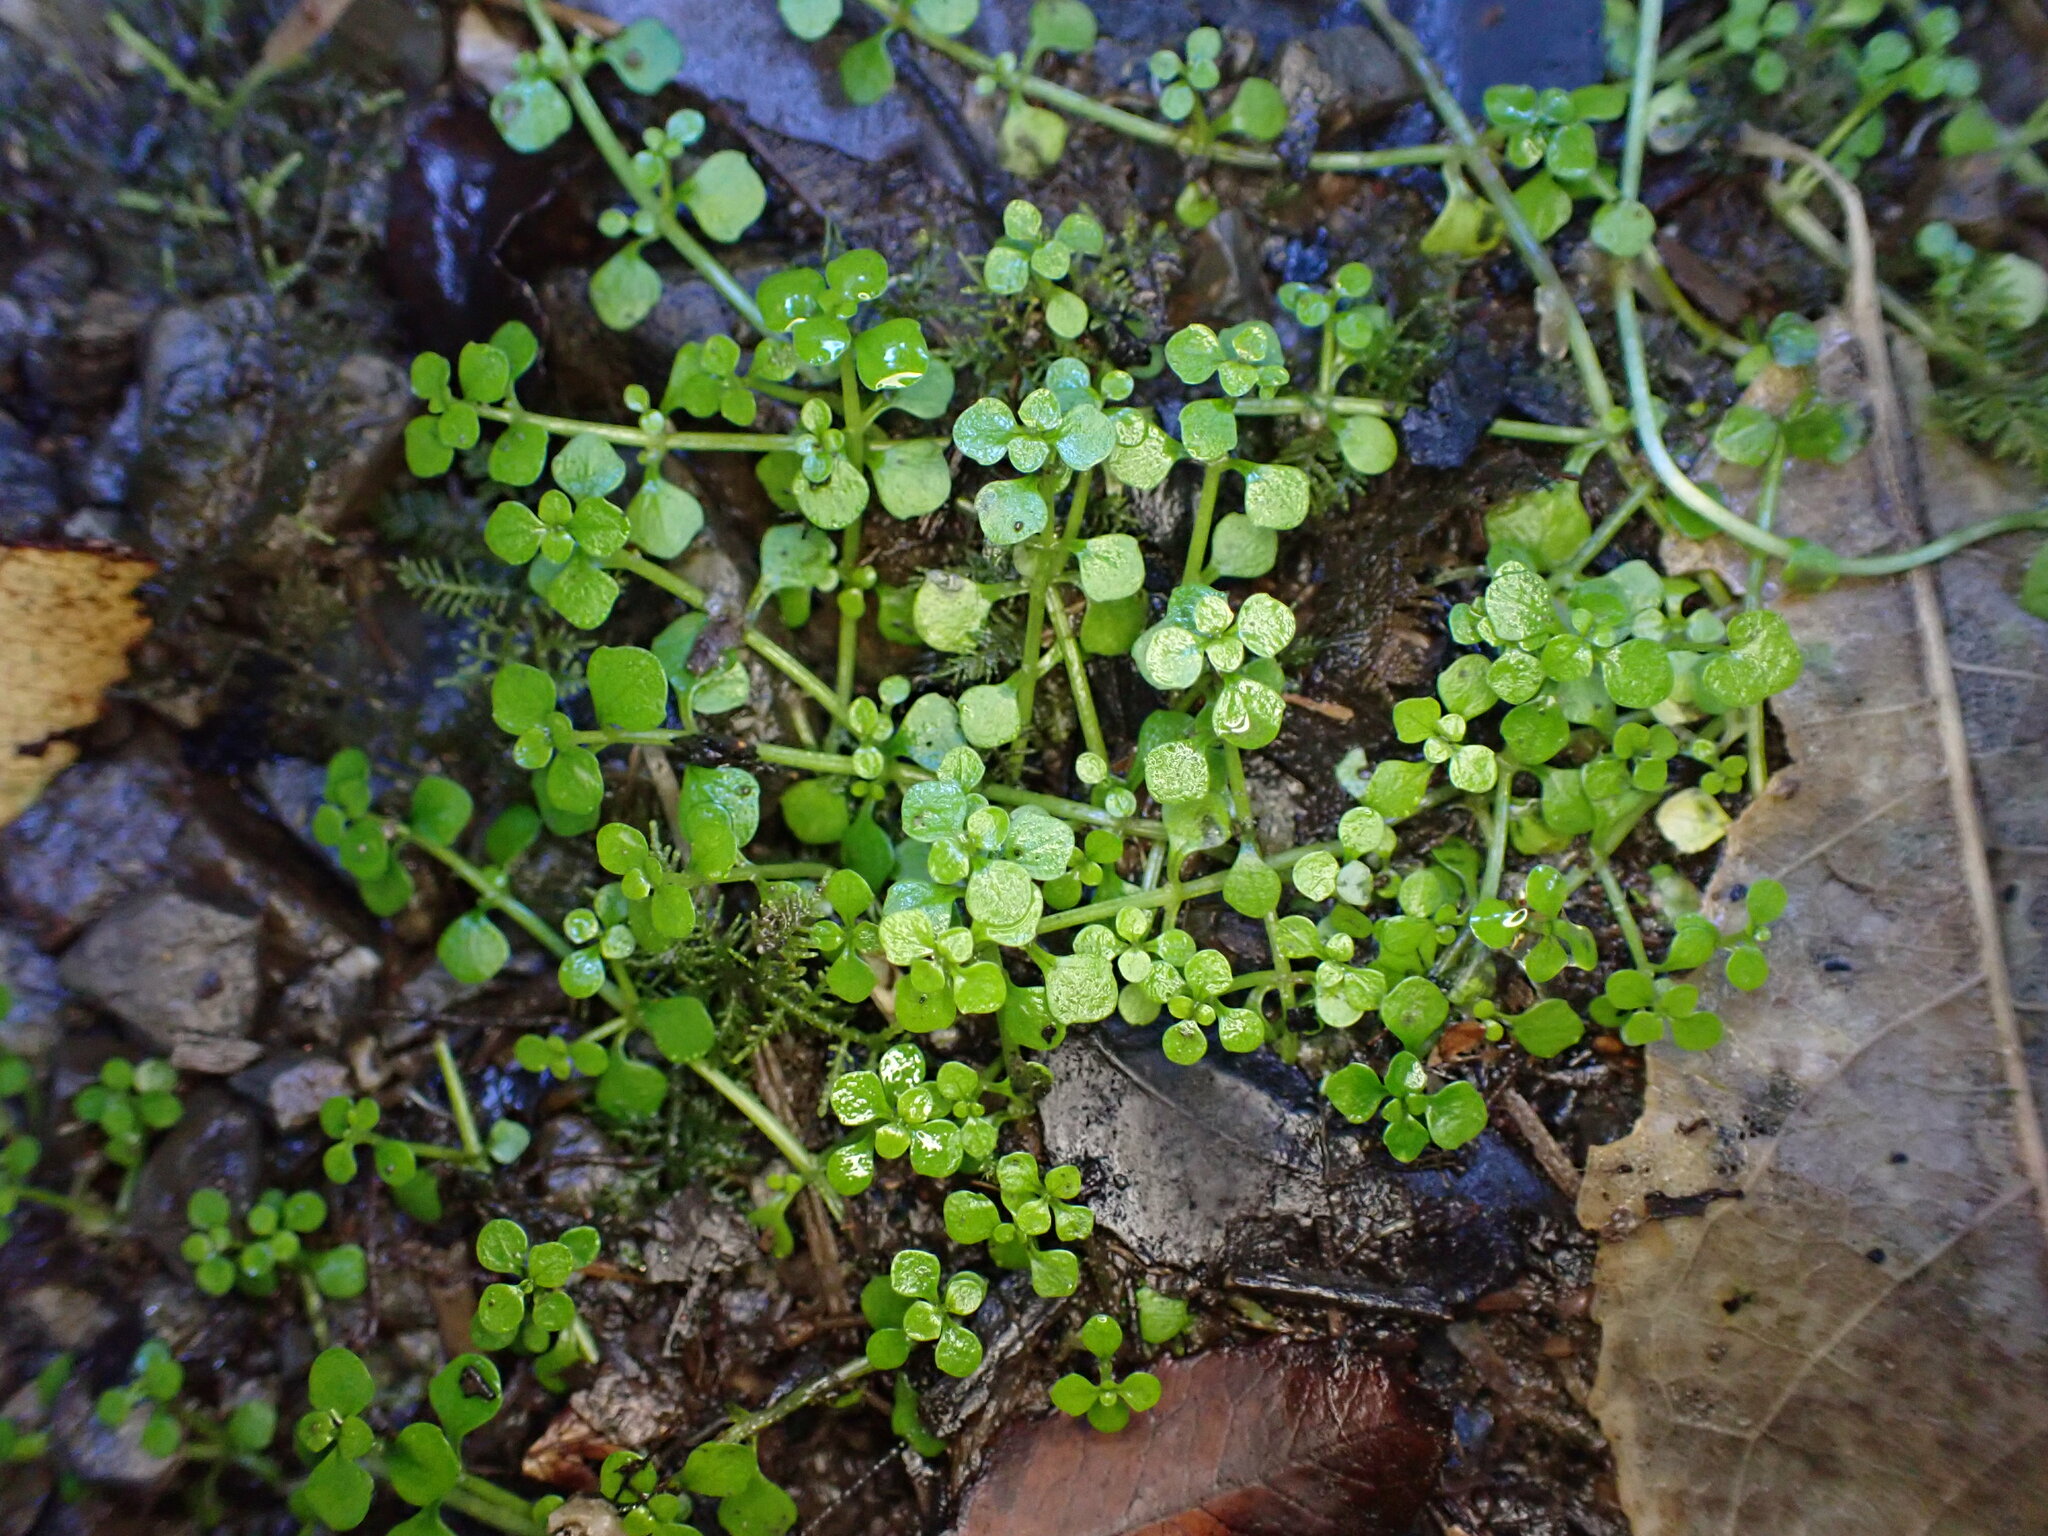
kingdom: Plantae
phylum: Tracheophyta
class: Magnoliopsida
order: Lamiales
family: Plantaginaceae
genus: Callitriche
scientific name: Callitriche muelleri
